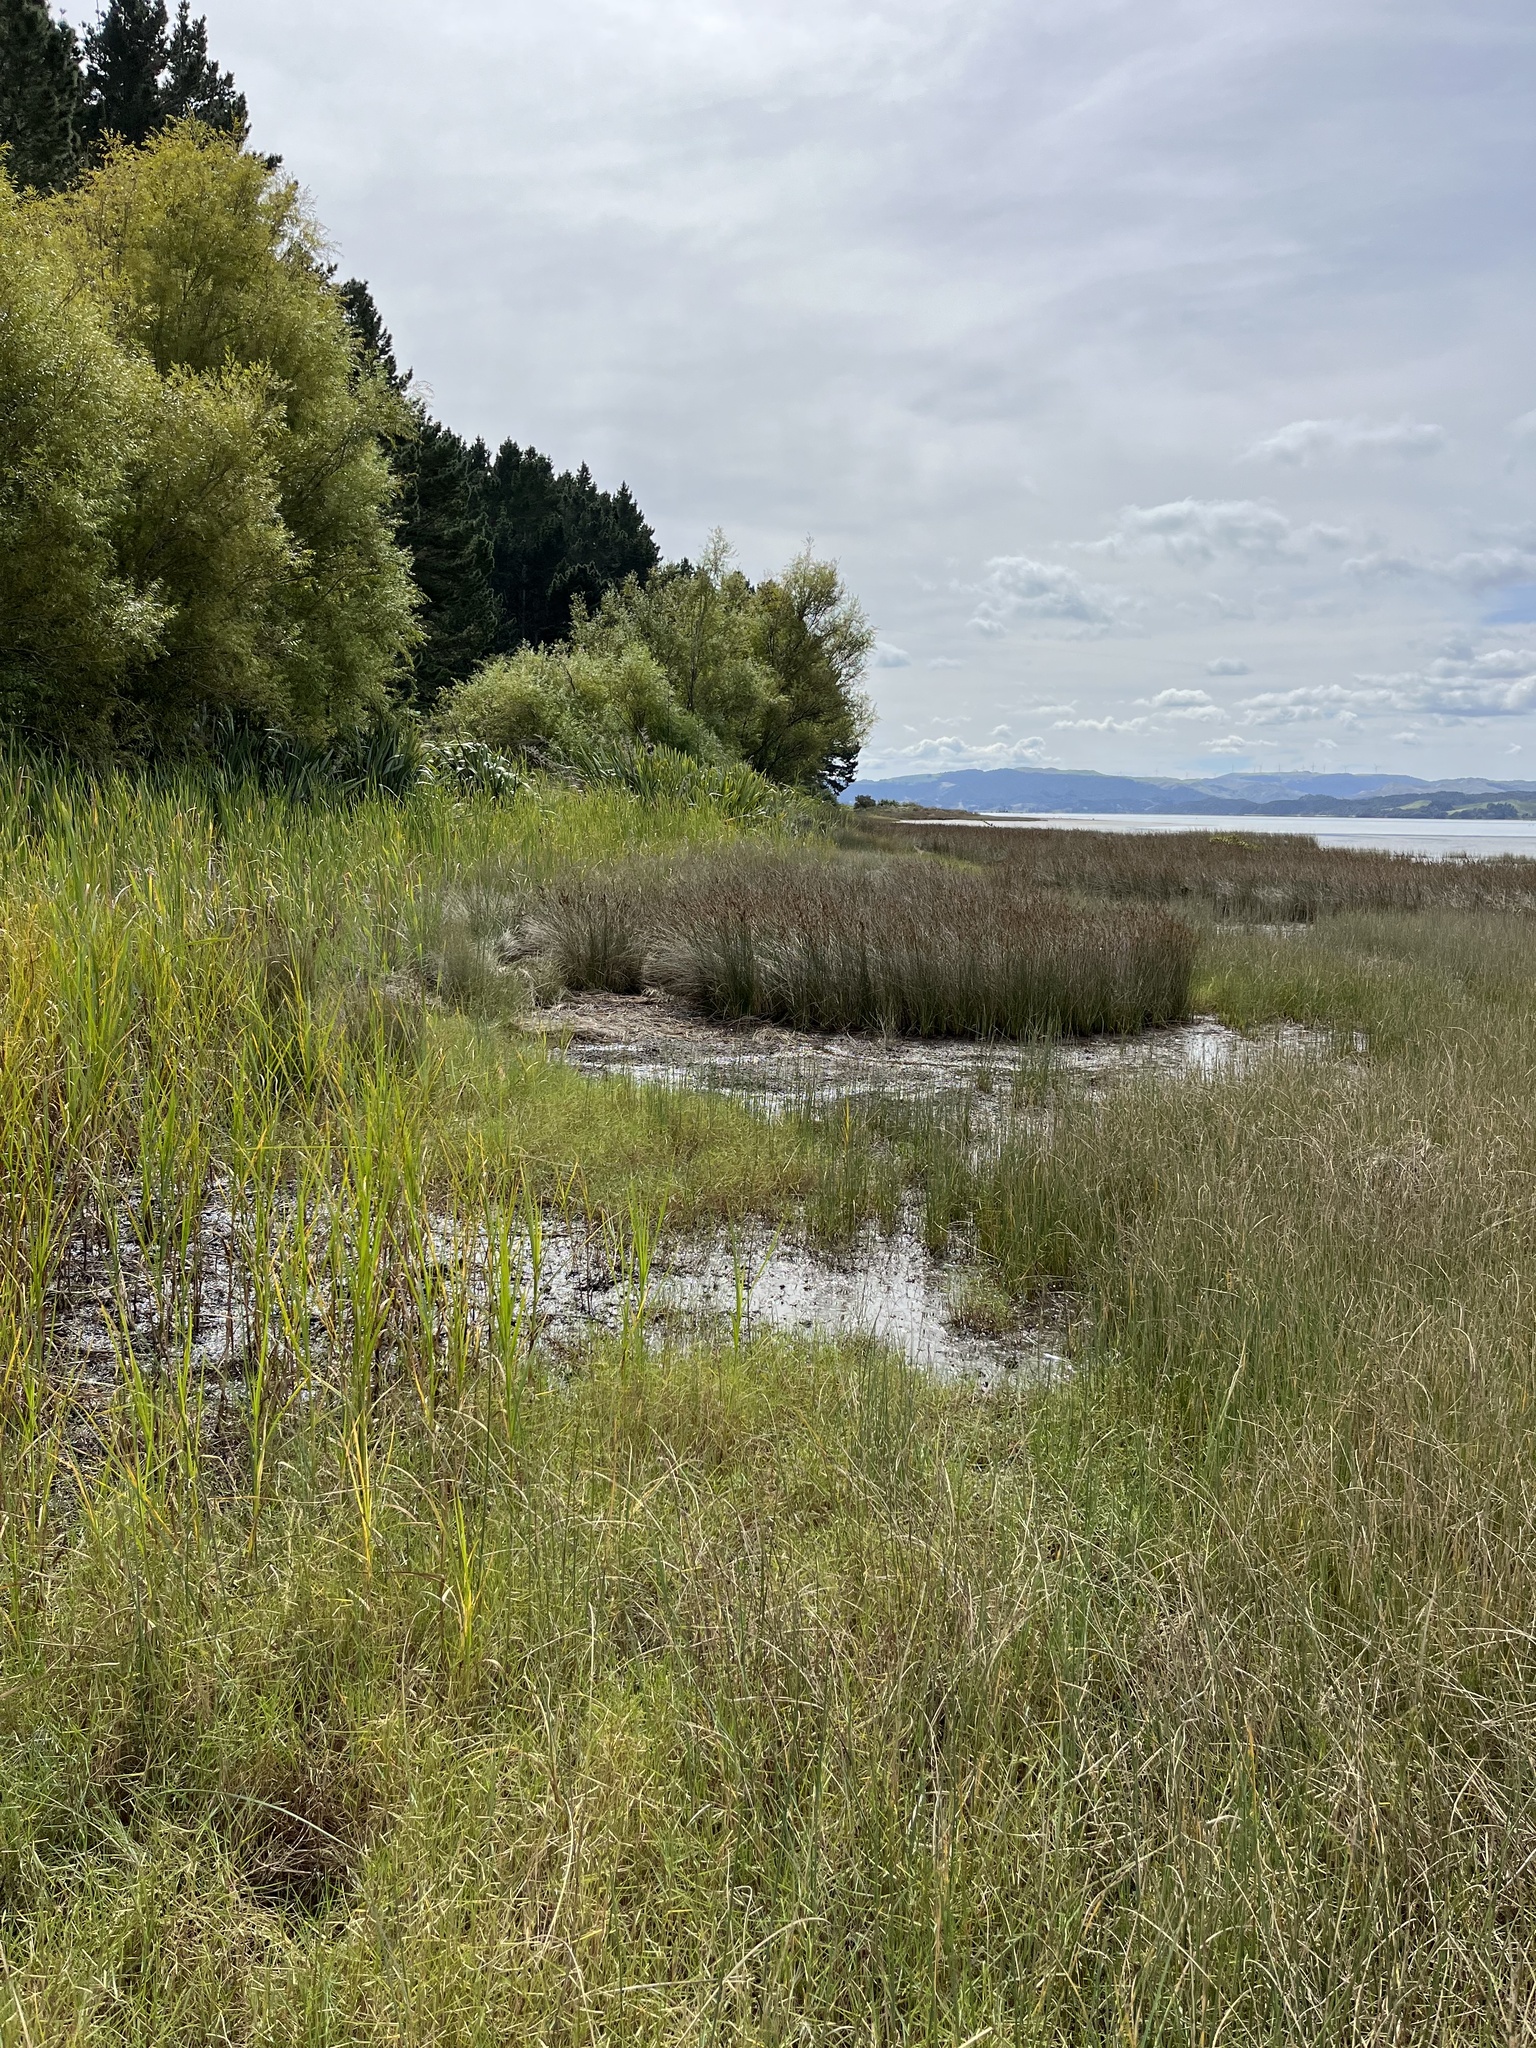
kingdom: Plantae
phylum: Tracheophyta
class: Liliopsida
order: Poales
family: Juncaceae
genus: Juncus
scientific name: Juncus kraussii
